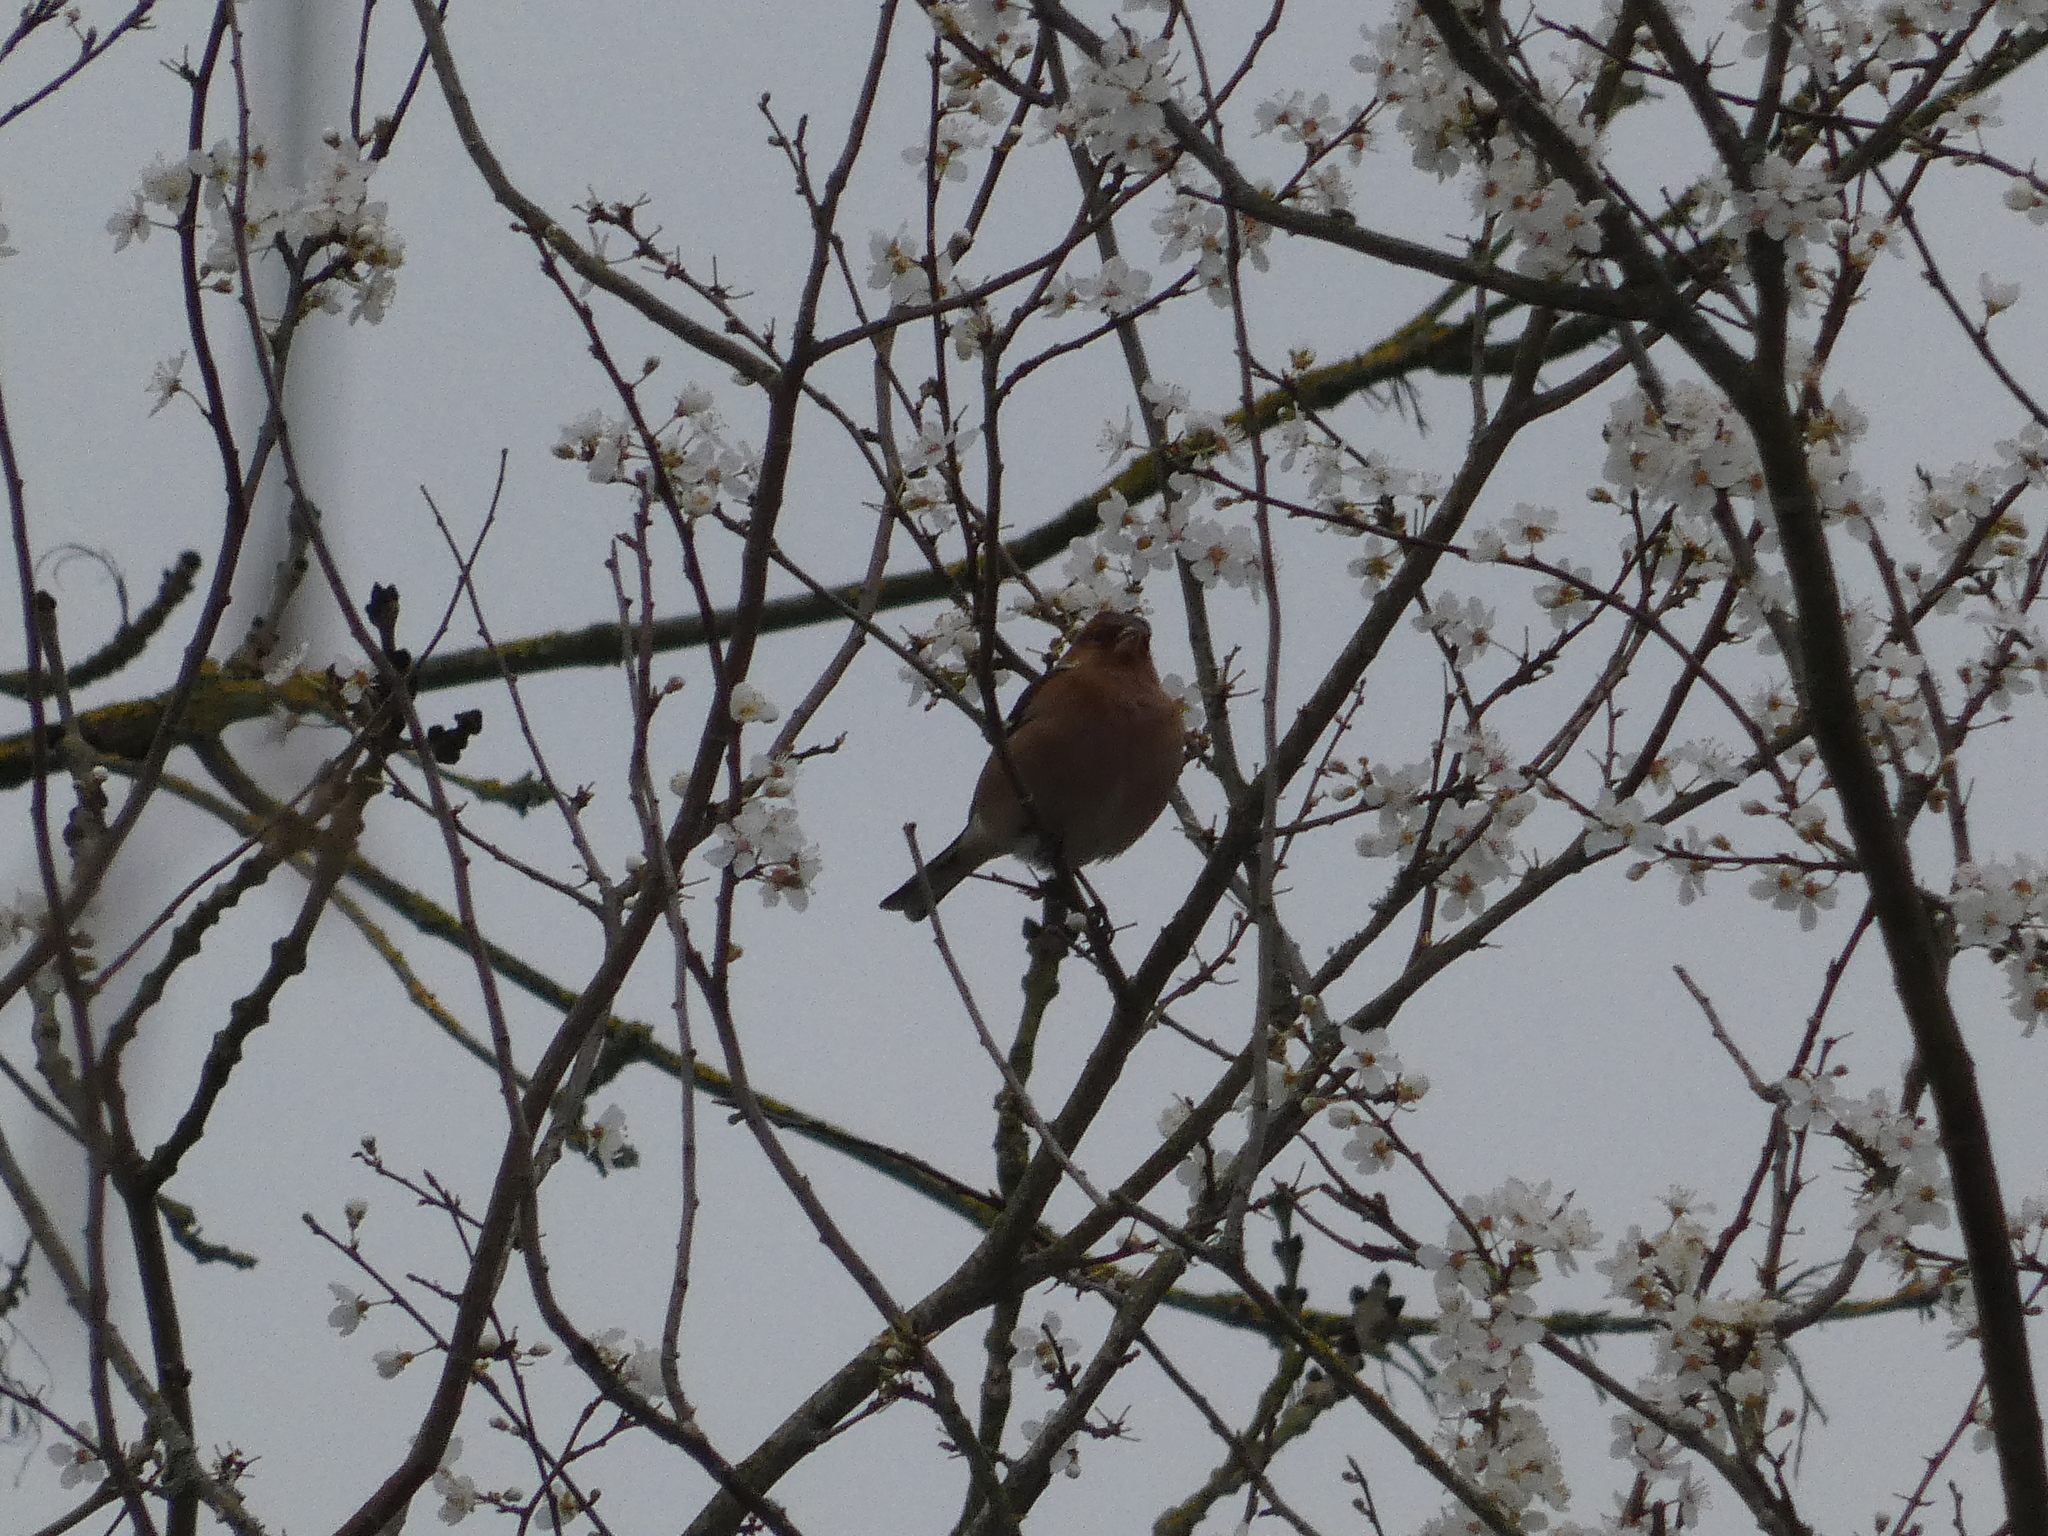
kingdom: Animalia
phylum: Chordata
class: Aves
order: Passeriformes
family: Fringillidae
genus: Fringilla
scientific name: Fringilla coelebs
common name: Common chaffinch
